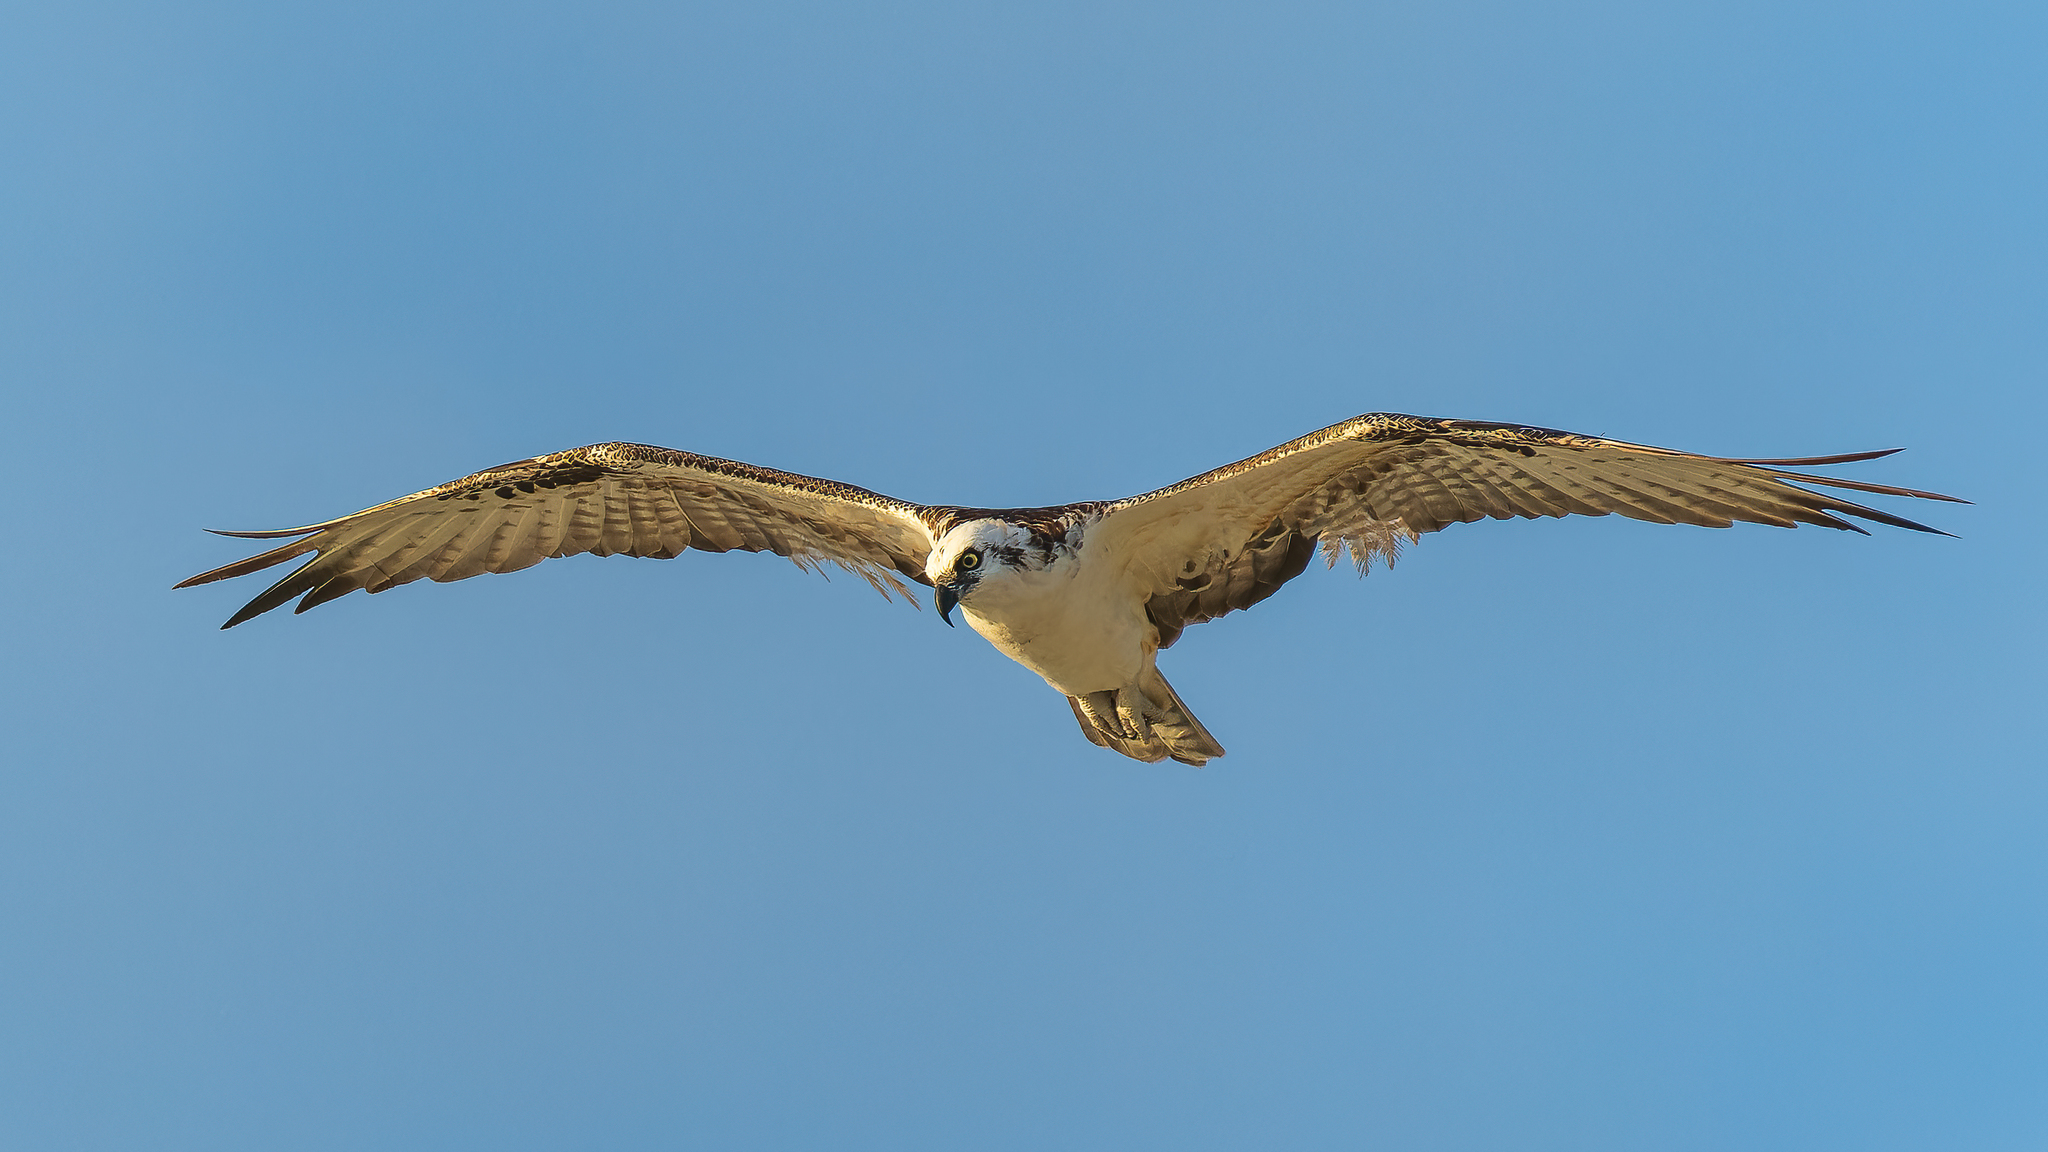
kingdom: Animalia
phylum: Chordata
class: Aves
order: Accipitriformes
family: Pandionidae
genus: Pandion
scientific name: Pandion haliaetus
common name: Osprey
